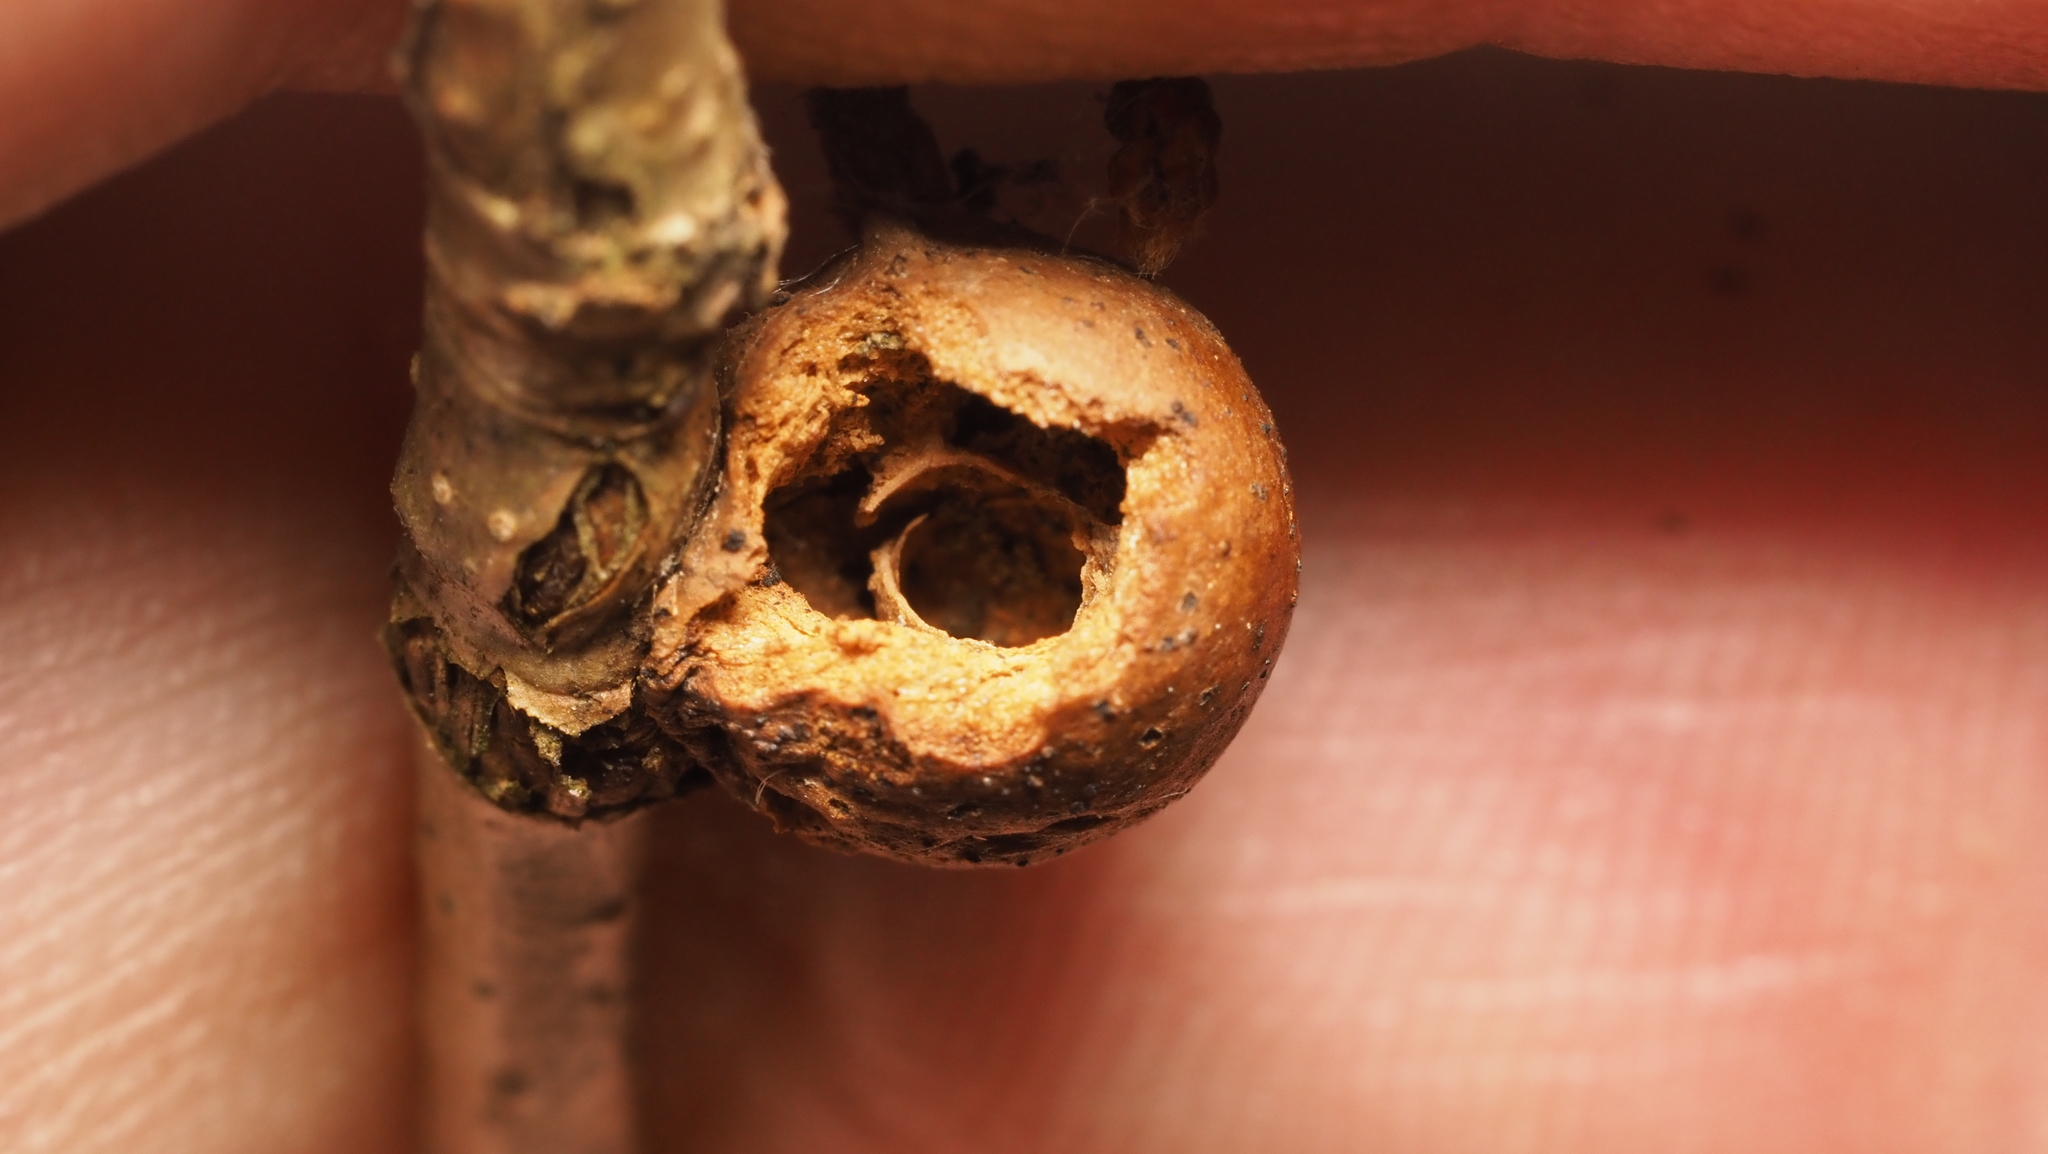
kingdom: Animalia
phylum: Arthropoda
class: Insecta
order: Hymenoptera
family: Cynipidae
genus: Disholcaspis
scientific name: Disholcaspis quercusglobulus
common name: Round bullet gall wasp
